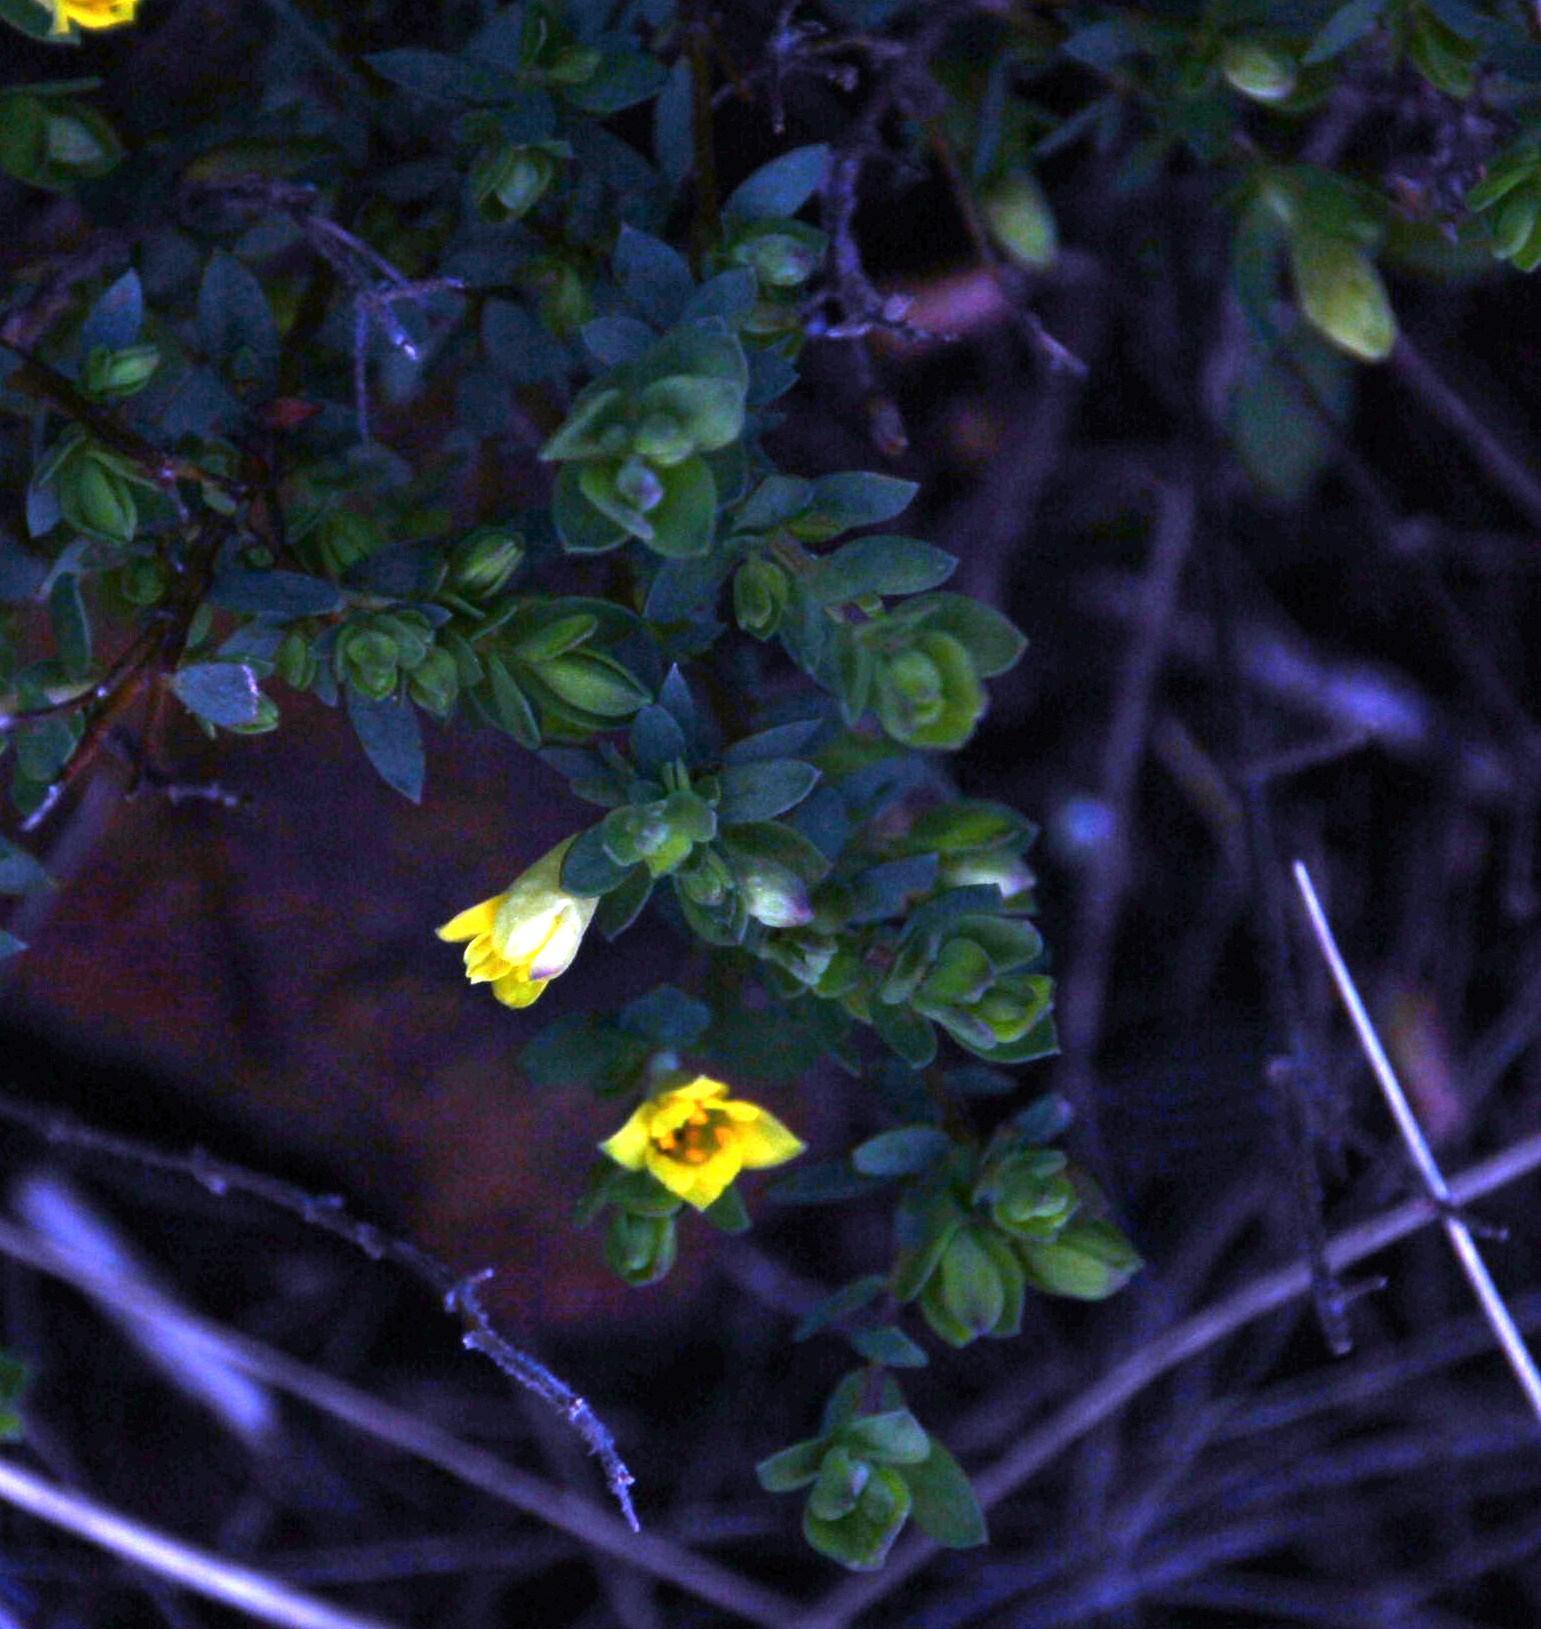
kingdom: Plantae
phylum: Tracheophyta
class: Magnoliopsida
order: Malvales
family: Thymelaeaceae
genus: Gnidia
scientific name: Gnidia juniperifolia
